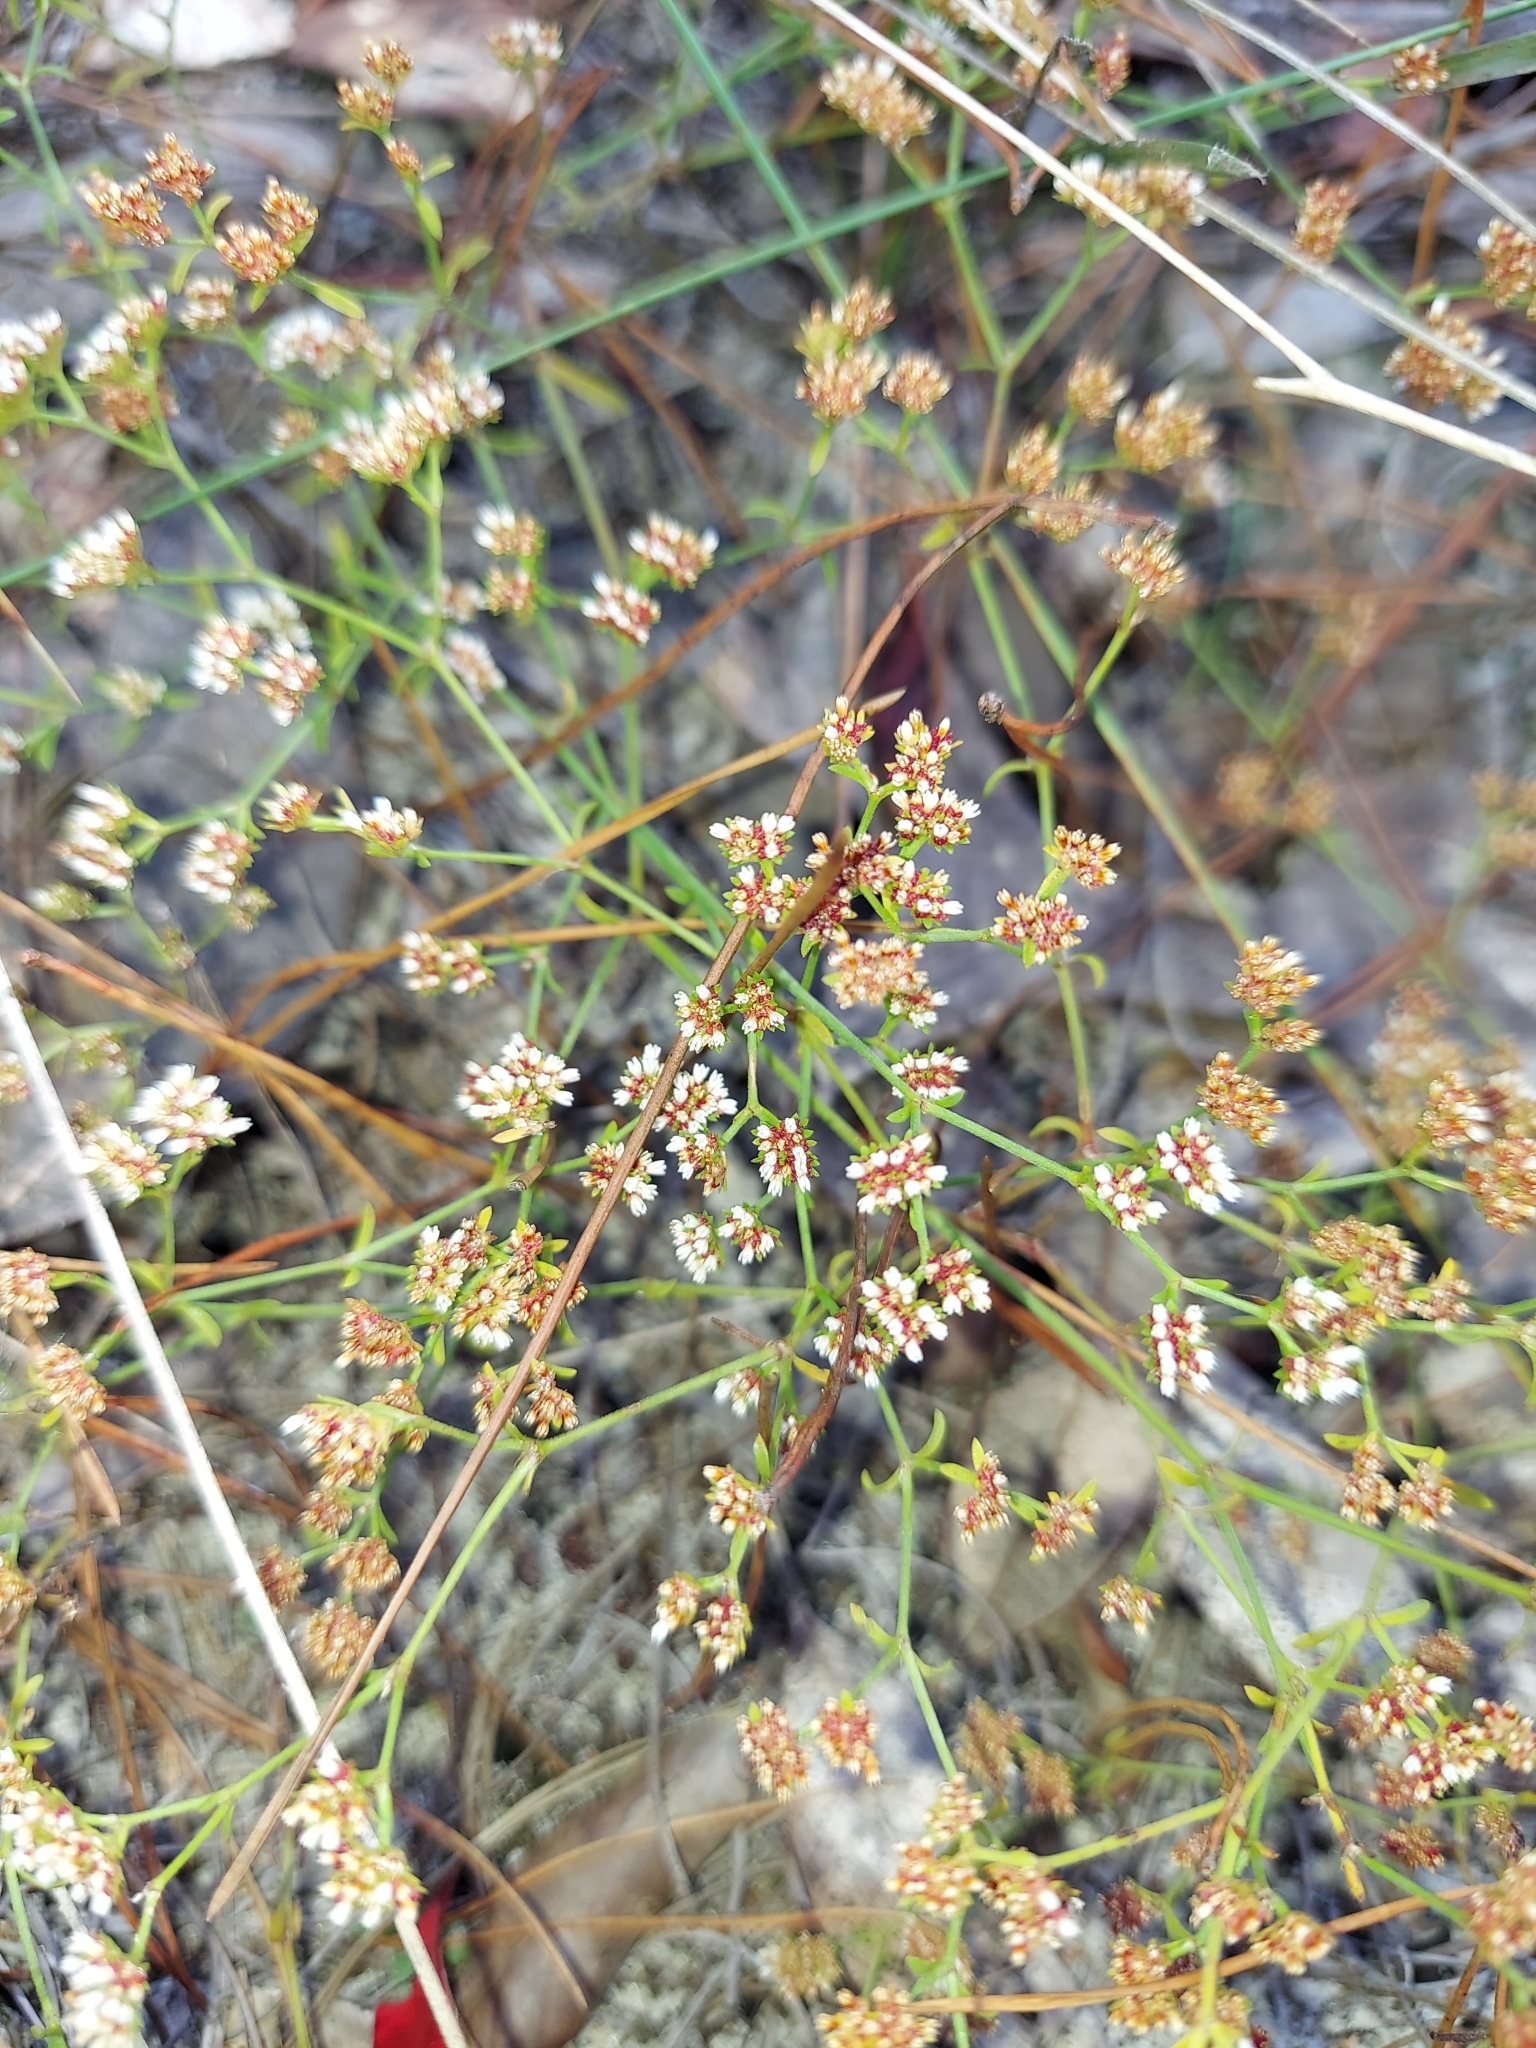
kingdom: Plantae
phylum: Tracheophyta
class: Magnoliopsida
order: Caryophyllales
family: Caryophyllaceae
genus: Paronychia
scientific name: Paronychia patula
